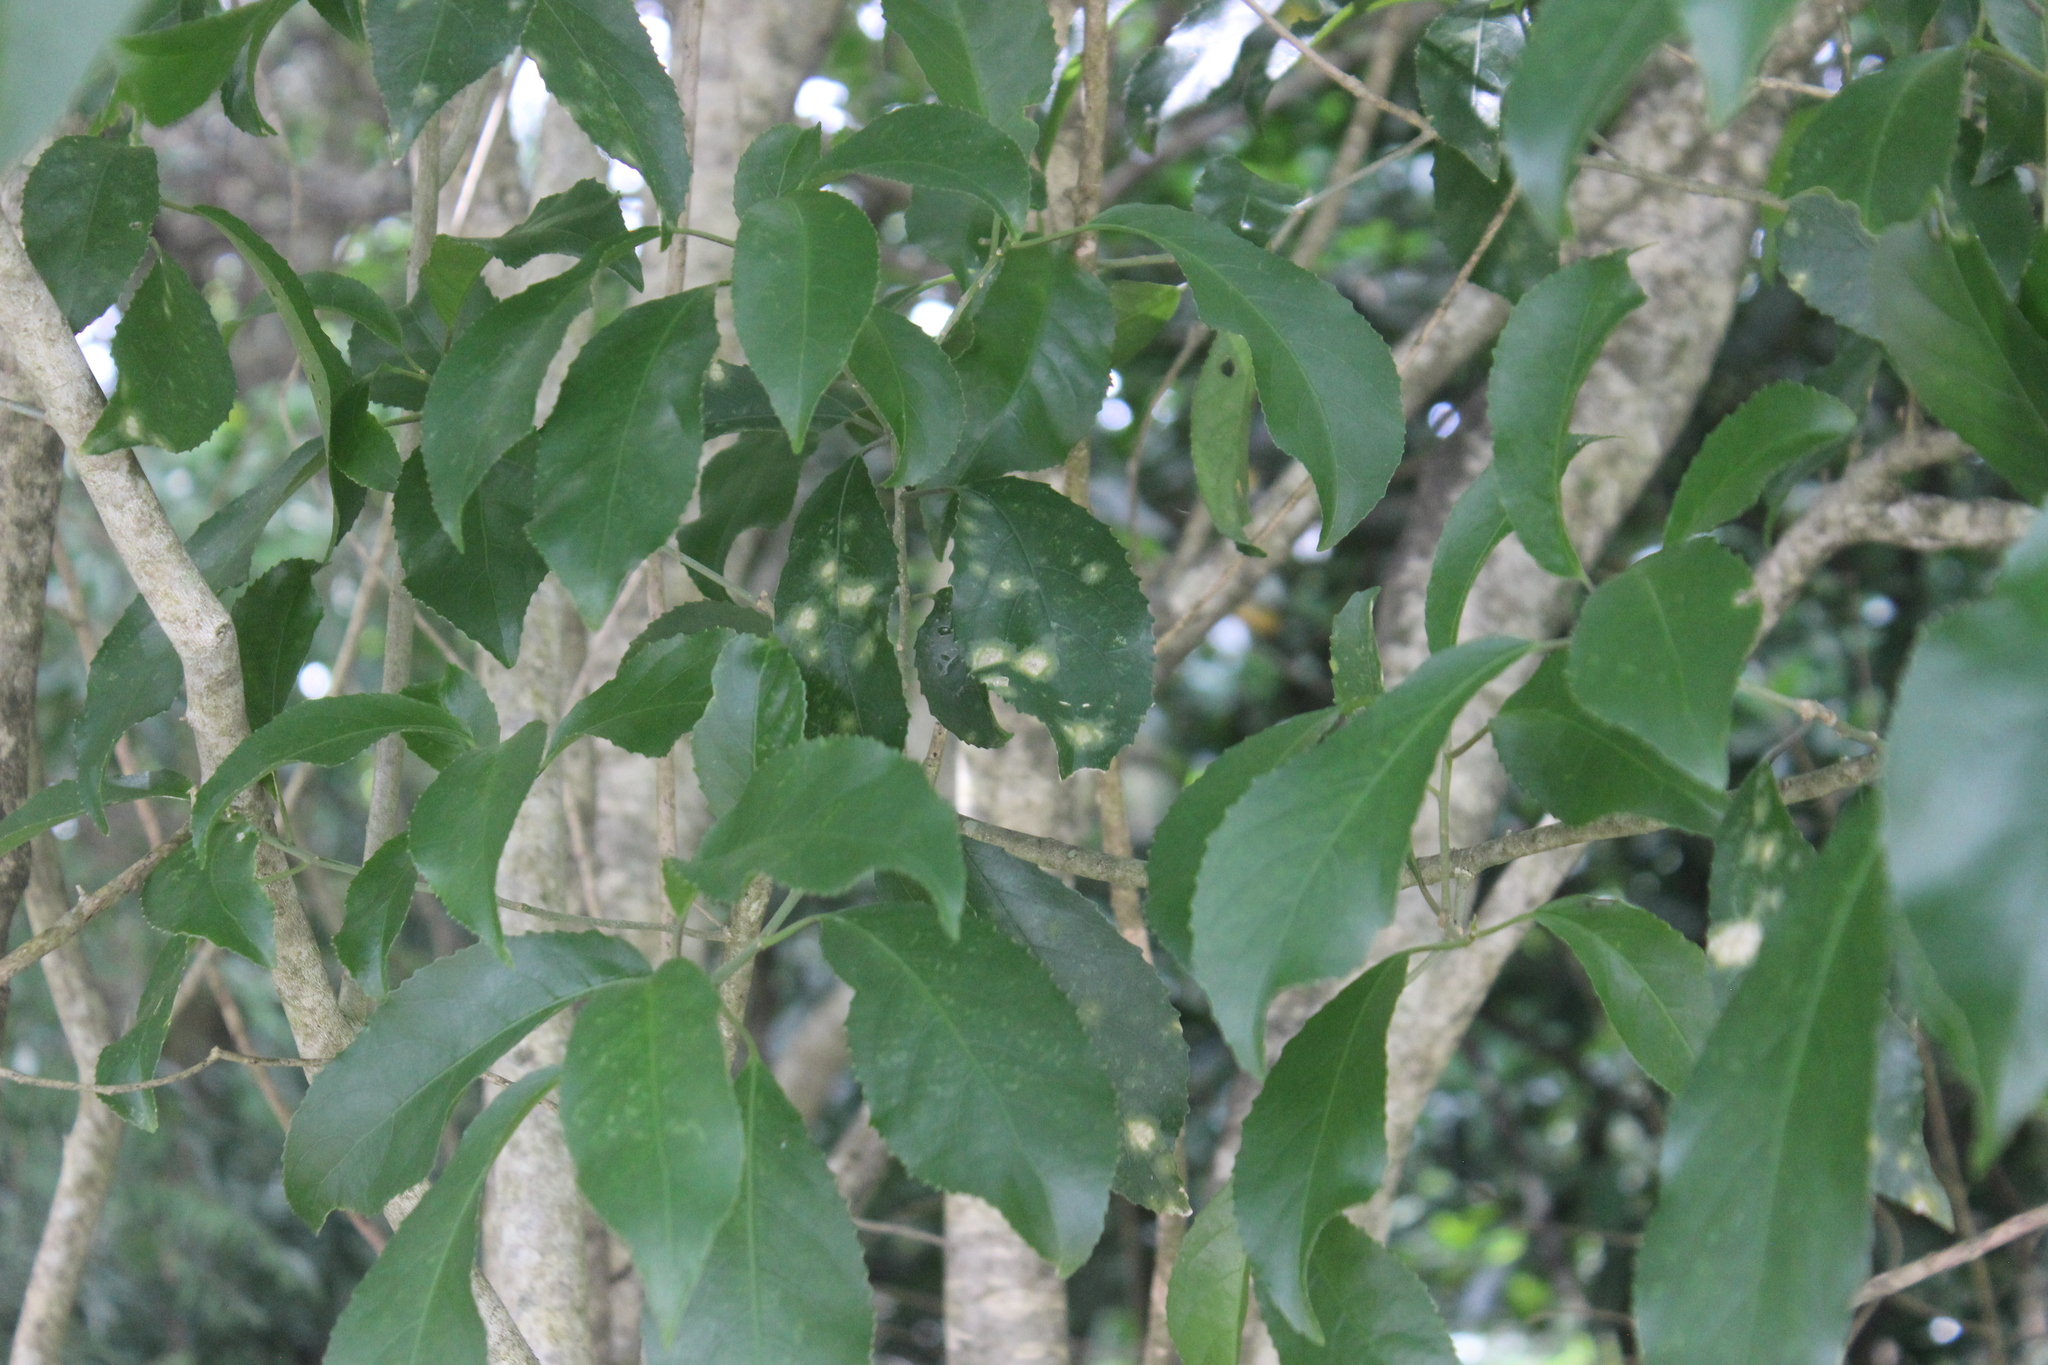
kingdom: Plantae
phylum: Tracheophyta
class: Magnoliopsida
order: Malpighiales
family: Violaceae
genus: Melicytus
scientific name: Melicytus ramiflorus
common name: Mahoe
